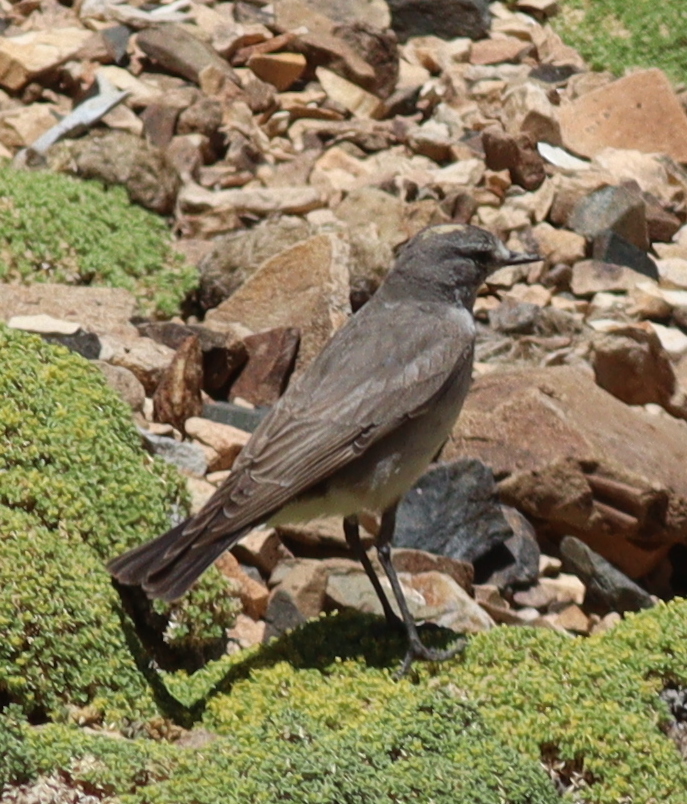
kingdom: Animalia
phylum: Chordata
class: Aves
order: Passeriformes
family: Tyrannidae
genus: Muscisaxicola
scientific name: Muscisaxicola flavinucha
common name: Ochre-naped ground tyrant
